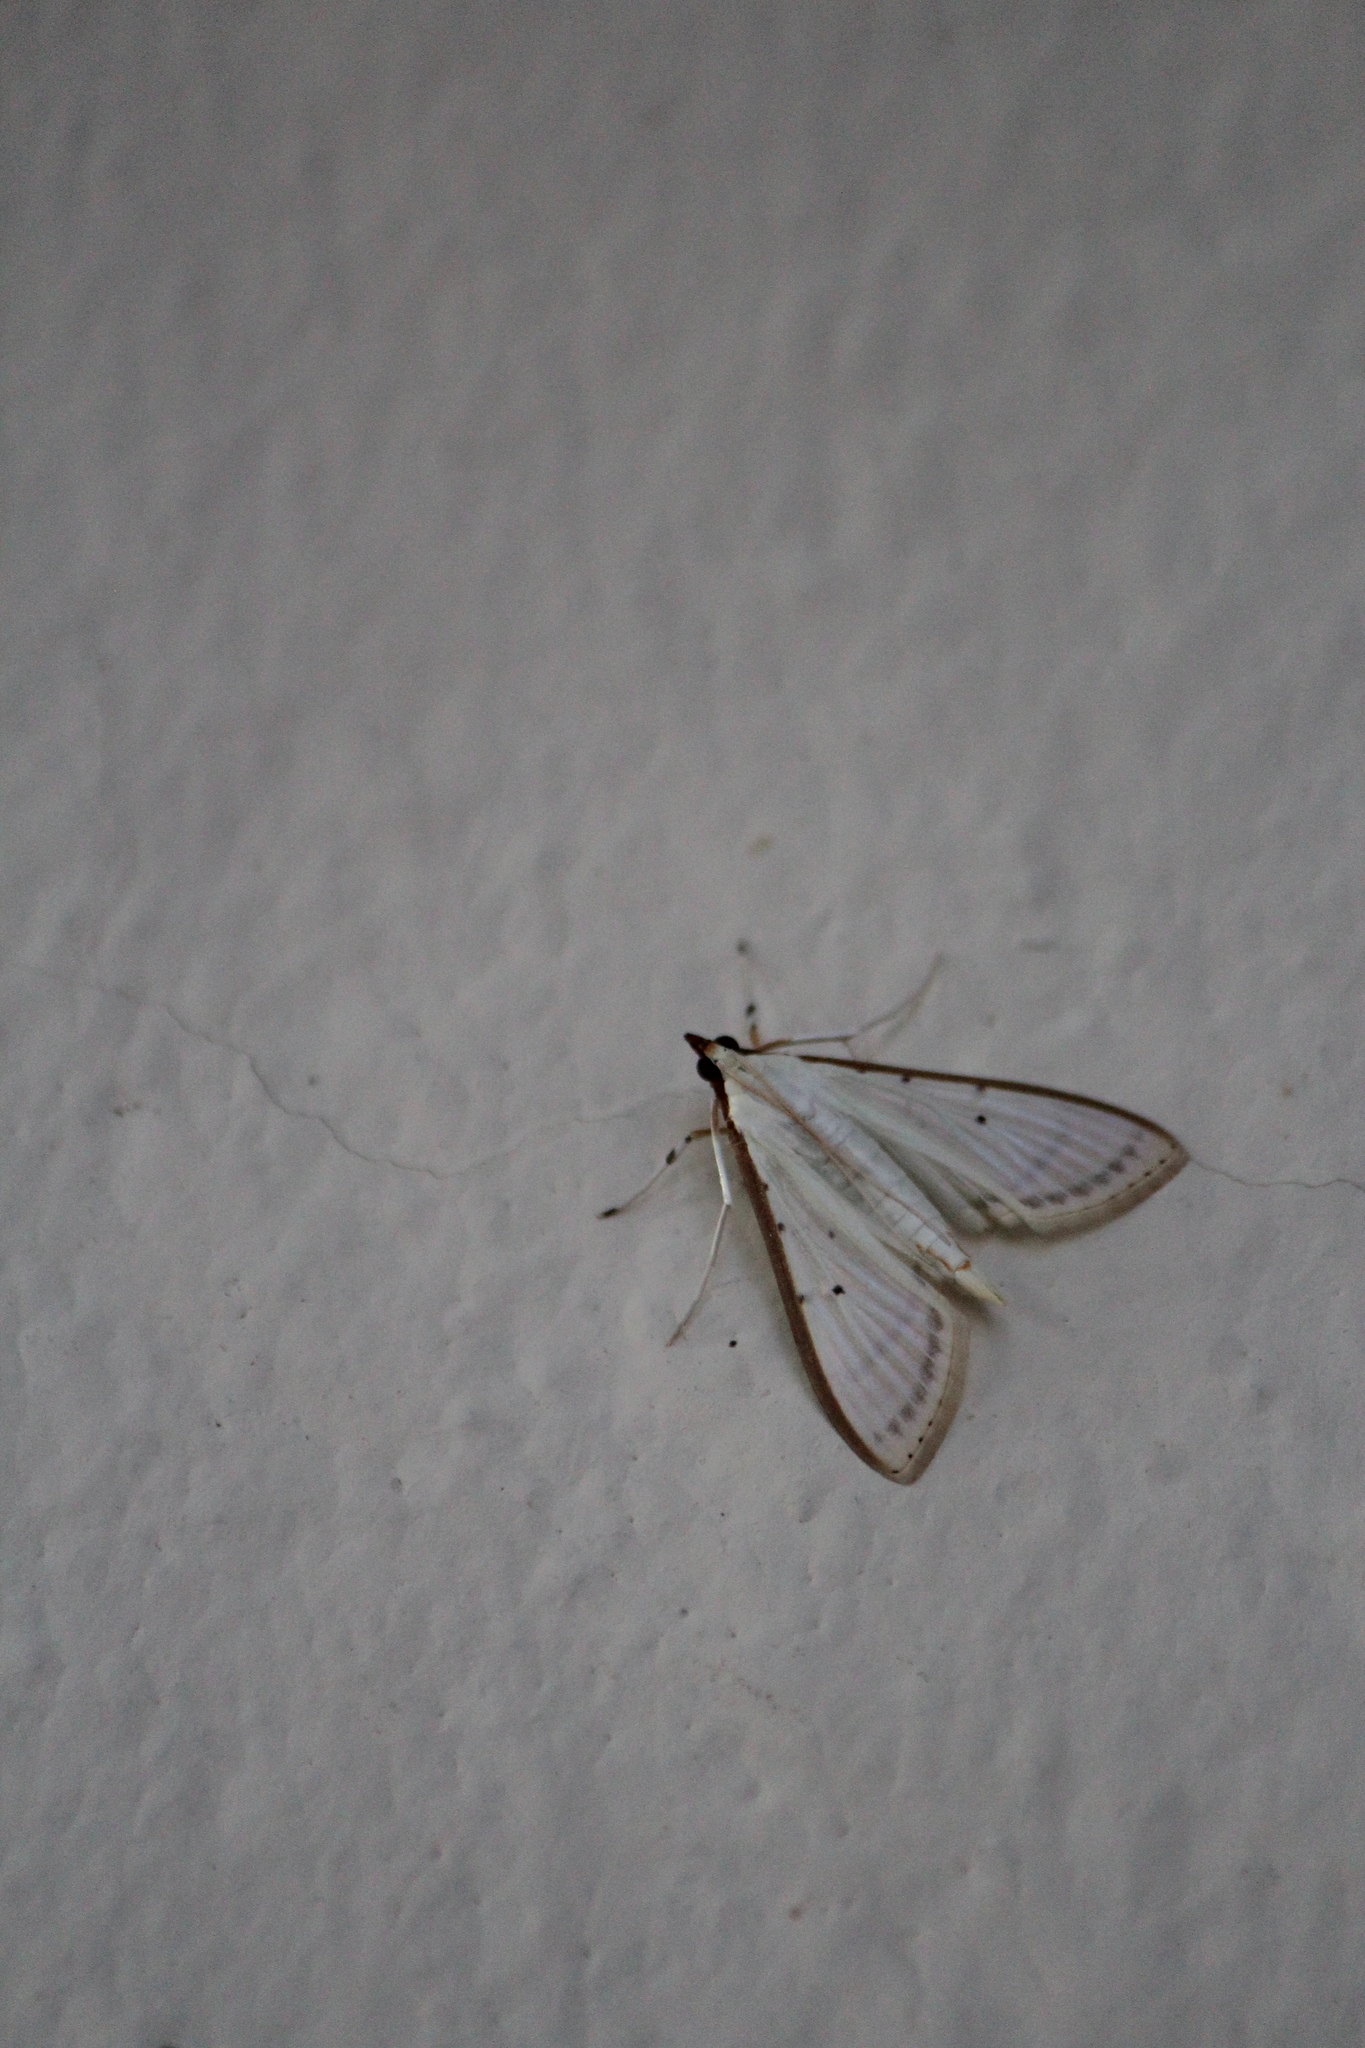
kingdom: Animalia
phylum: Arthropoda
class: Insecta
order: Lepidoptera
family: Crambidae
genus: Palpita
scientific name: Palpita quadristigmalis
